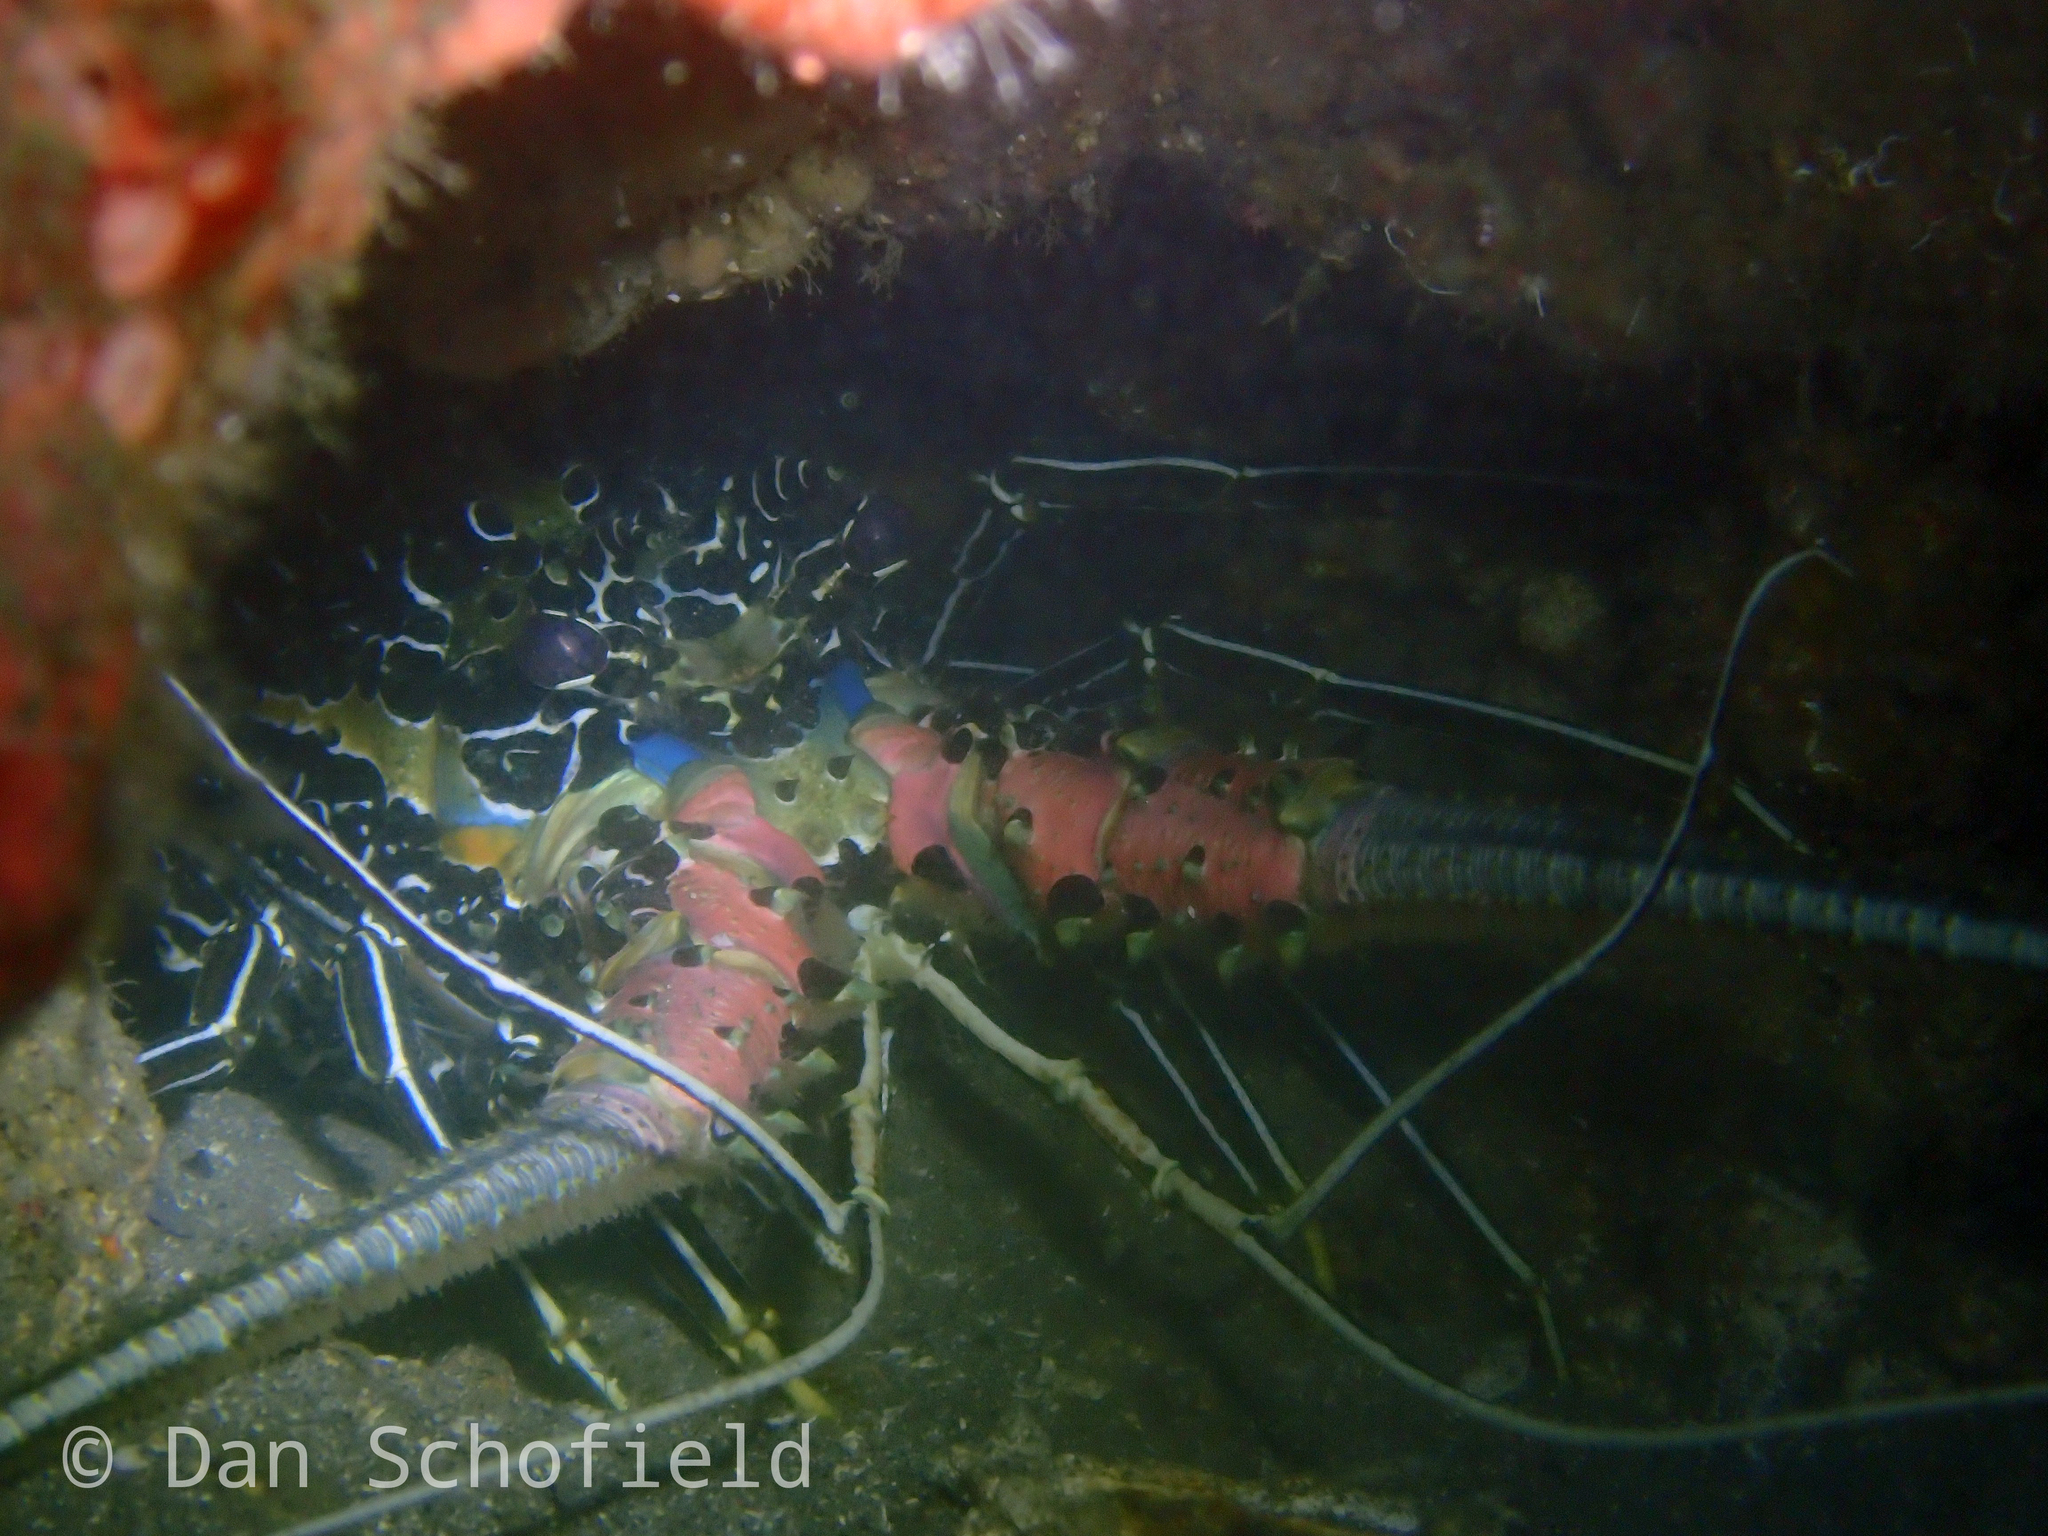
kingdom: Animalia
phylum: Arthropoda
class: Malacostraca
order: Decapoda
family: Palinuridae
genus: Panulirus
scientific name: Panulirus versicolor
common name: Painted spiny lobster
